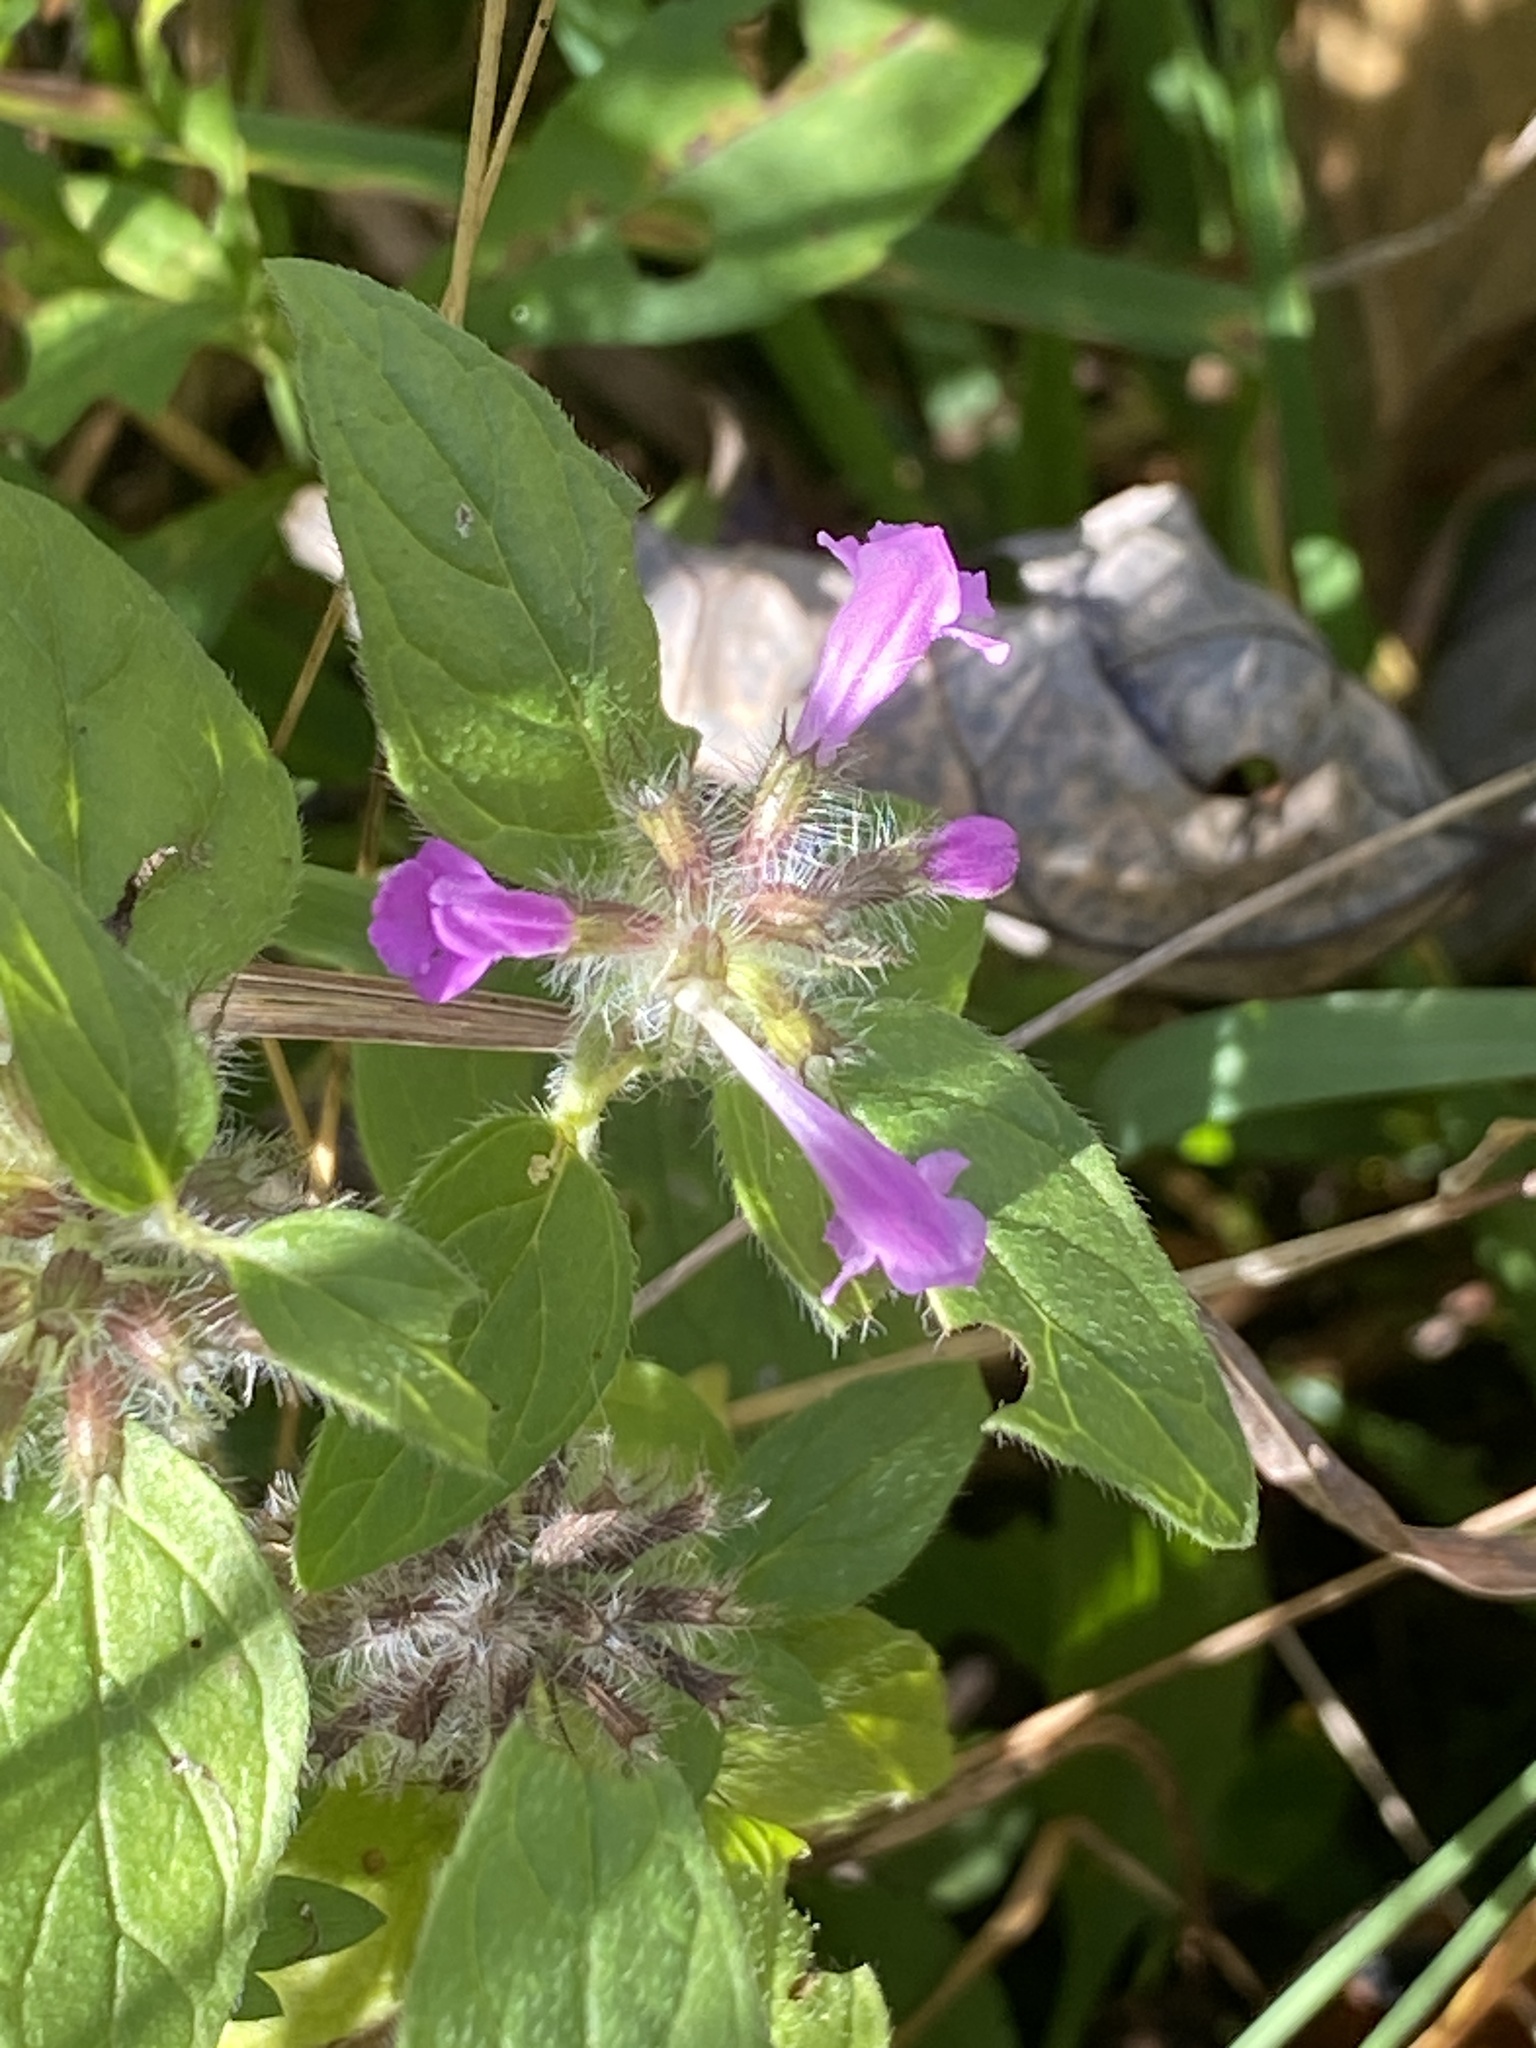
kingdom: Plantae
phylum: Tracheophyta
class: Magnoliopsida
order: Lamiales
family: Lamiaceae
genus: Clinopodium
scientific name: Clinopodium vulgare
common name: Wild basil
